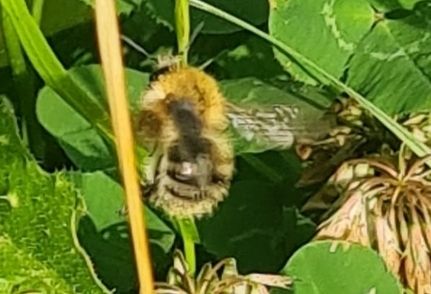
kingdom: Animalia
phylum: Arthropoda
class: Insecta
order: Hymenoptera
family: Apidae
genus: Bombus
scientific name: Bombus pascuorum
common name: Common carder bee
